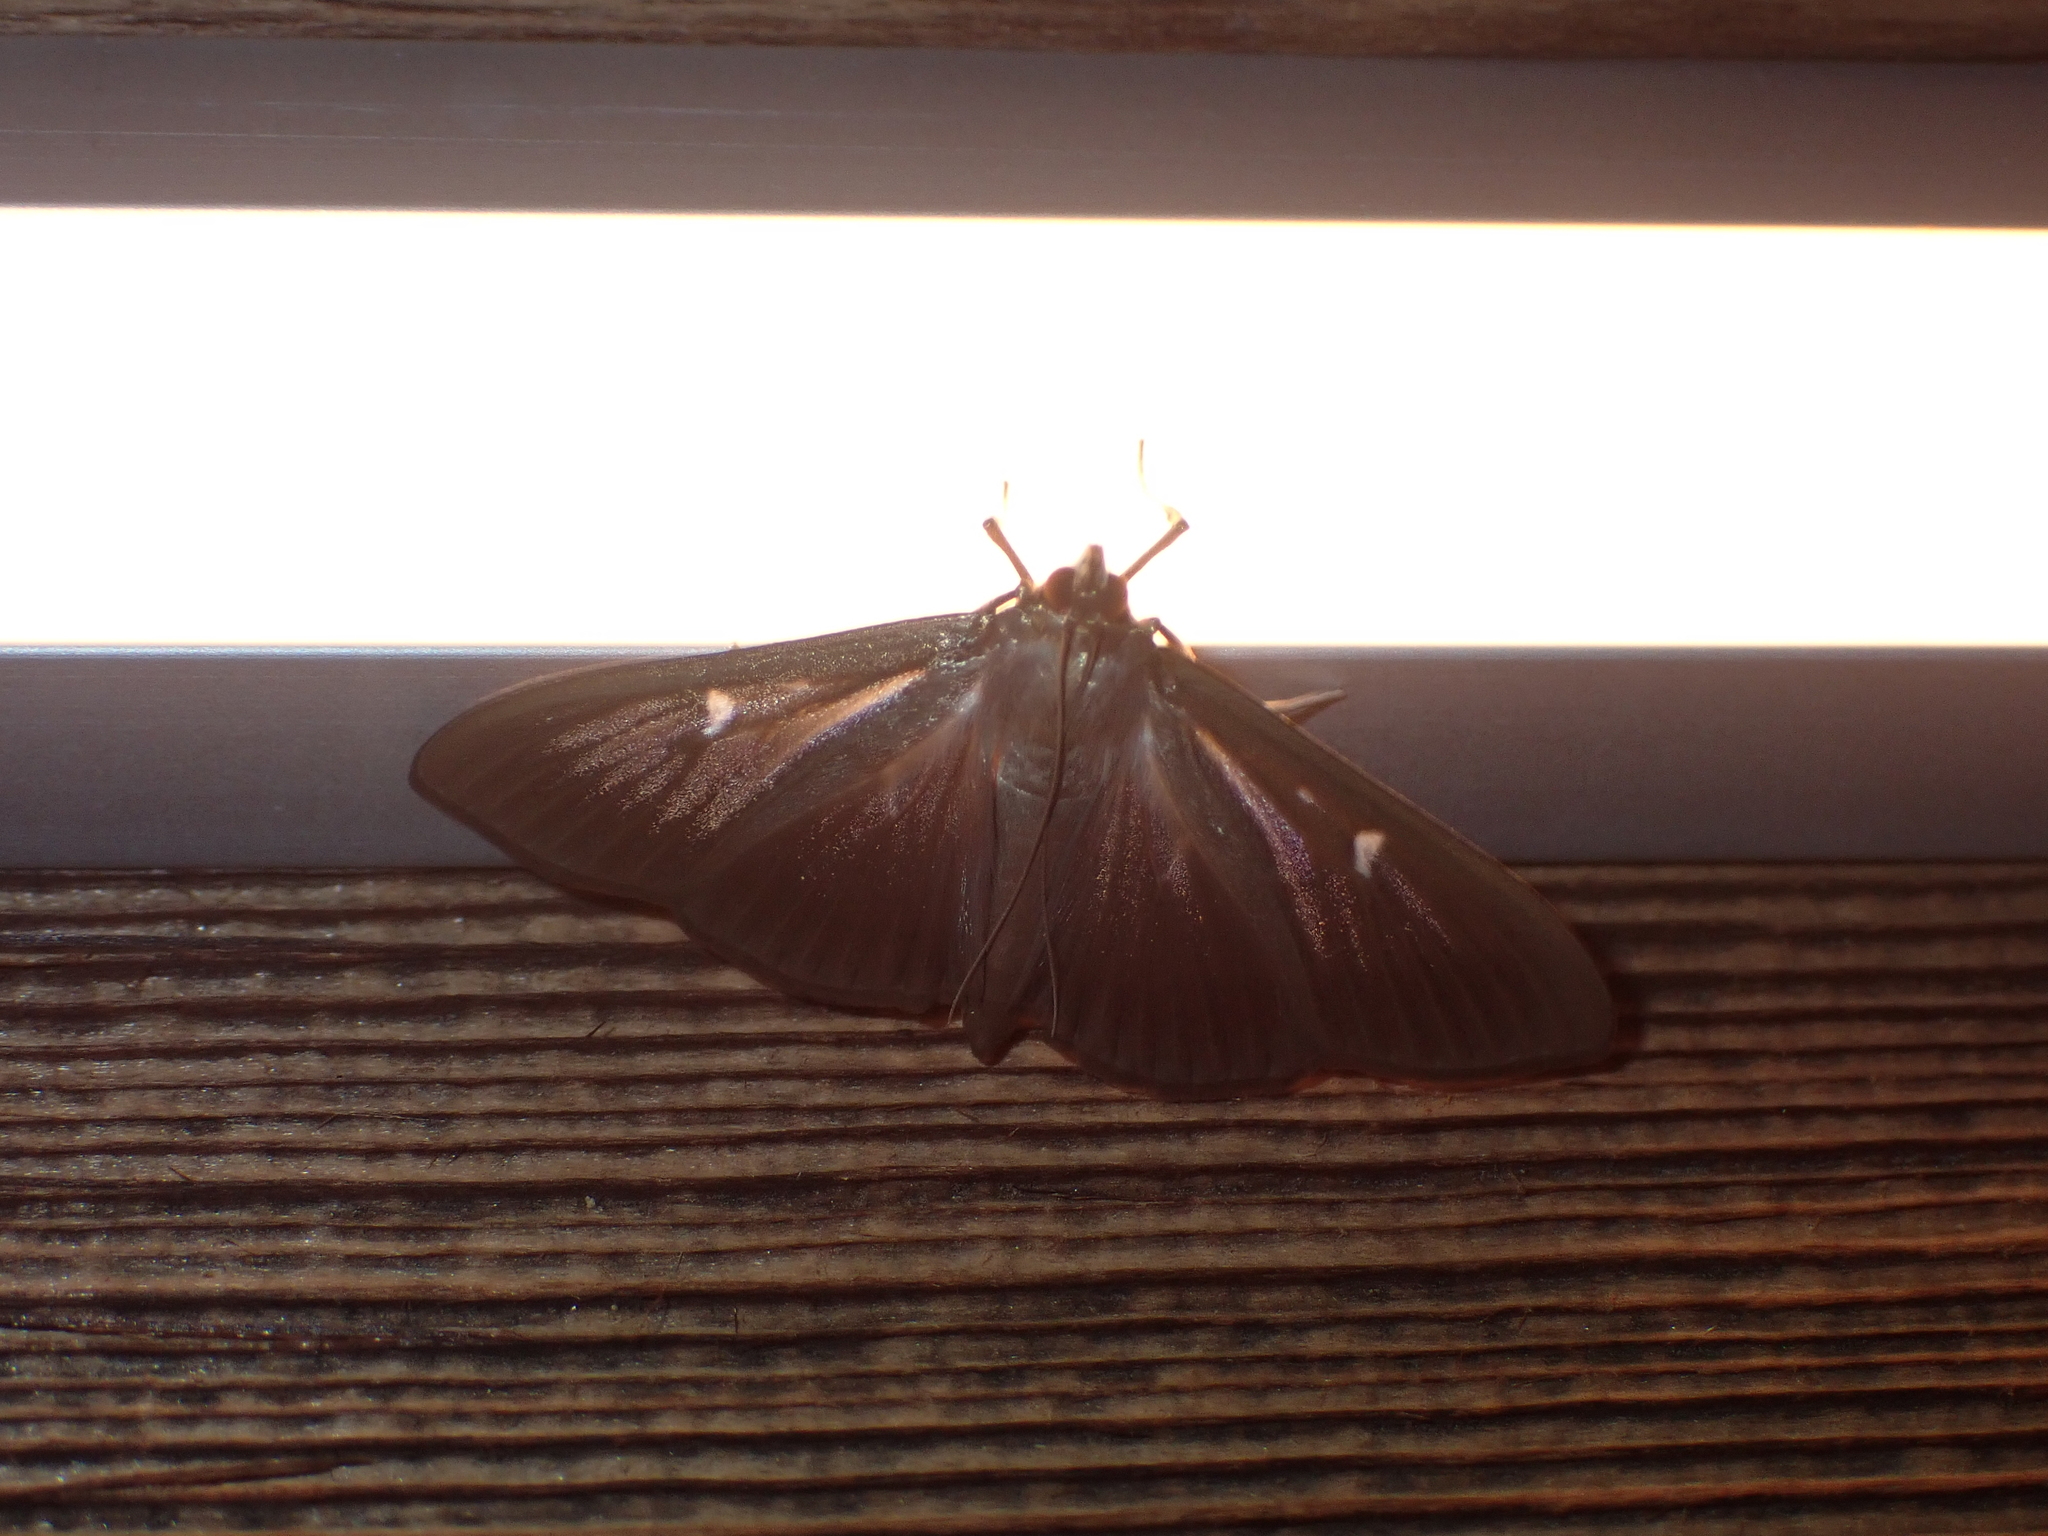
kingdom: Animalia
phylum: Arthropoda
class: Insecta
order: Lepidoptera
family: Crambidae
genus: Cydalima
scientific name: Cydalima perspectalis
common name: Box tree moth
